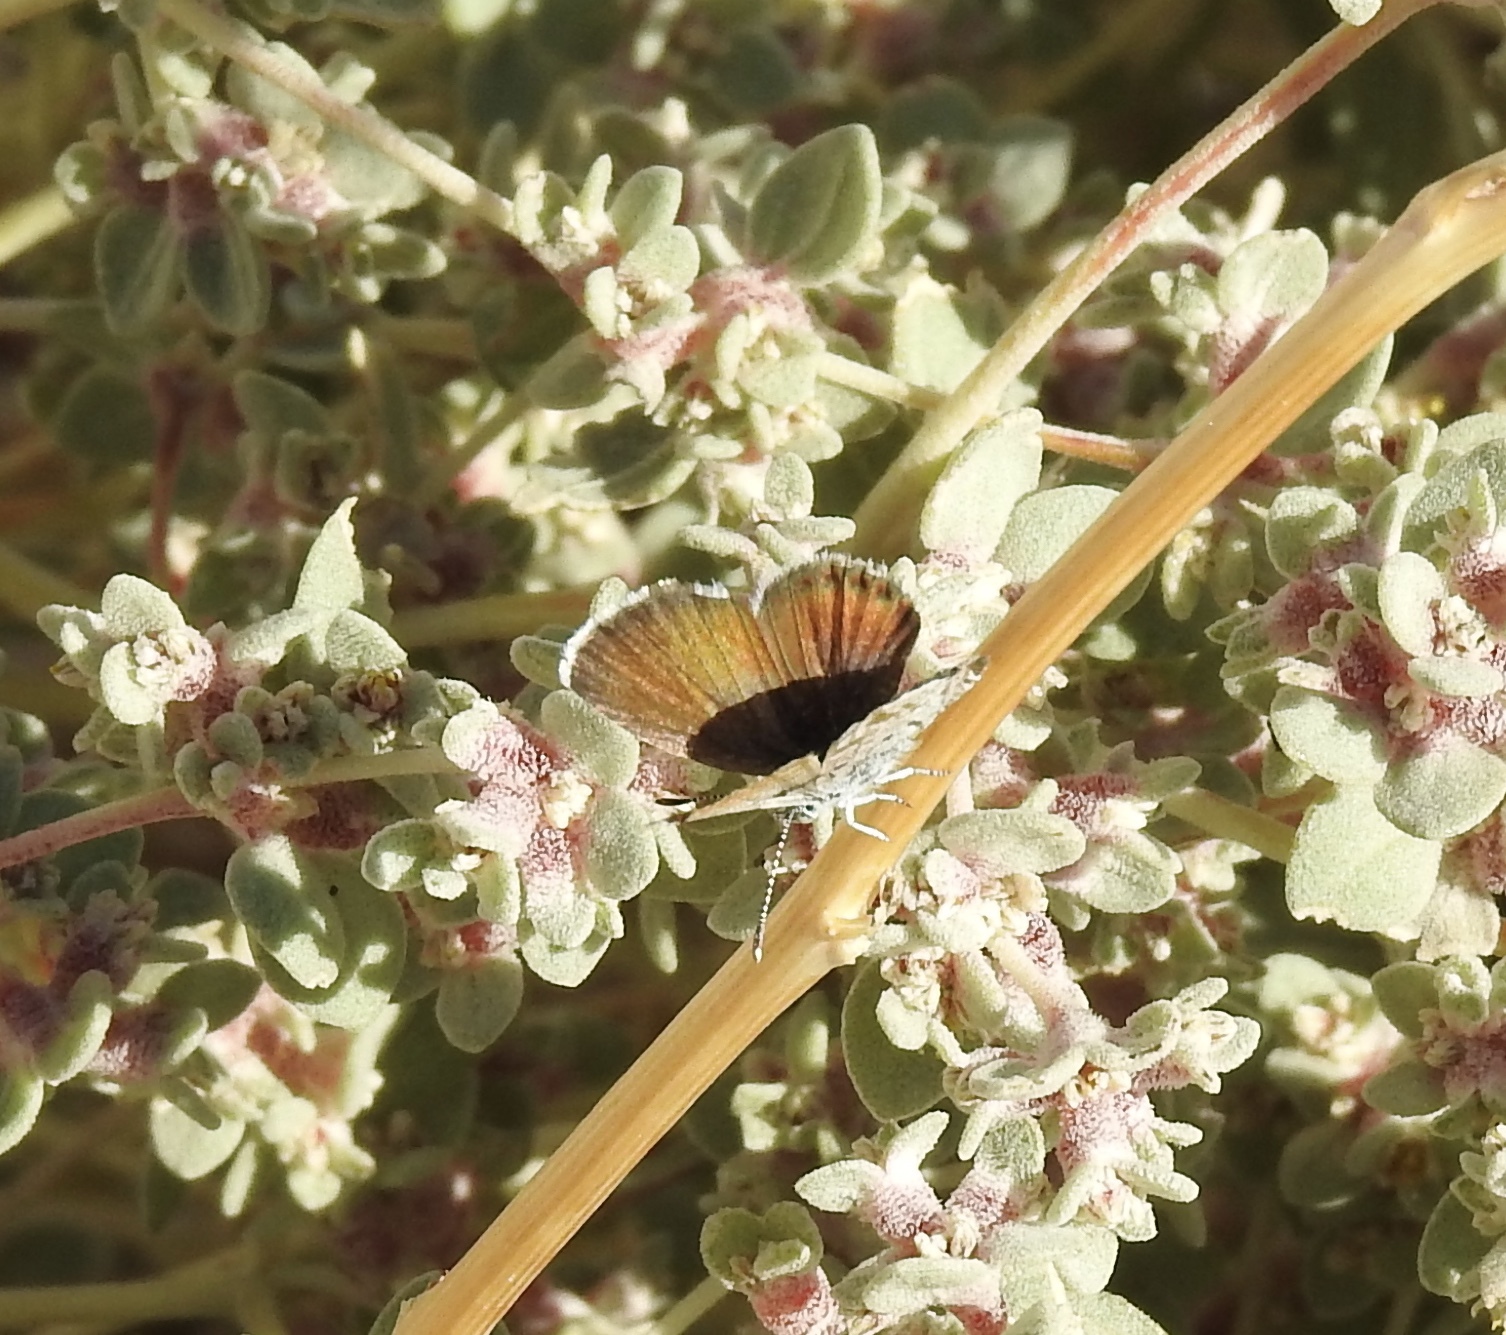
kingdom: Animalia
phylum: Arthropoda
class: Insecta
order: Lepidoptera
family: Lycaenidae
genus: Brephidium
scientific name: Brephidium exilis
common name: Pygmy blue
